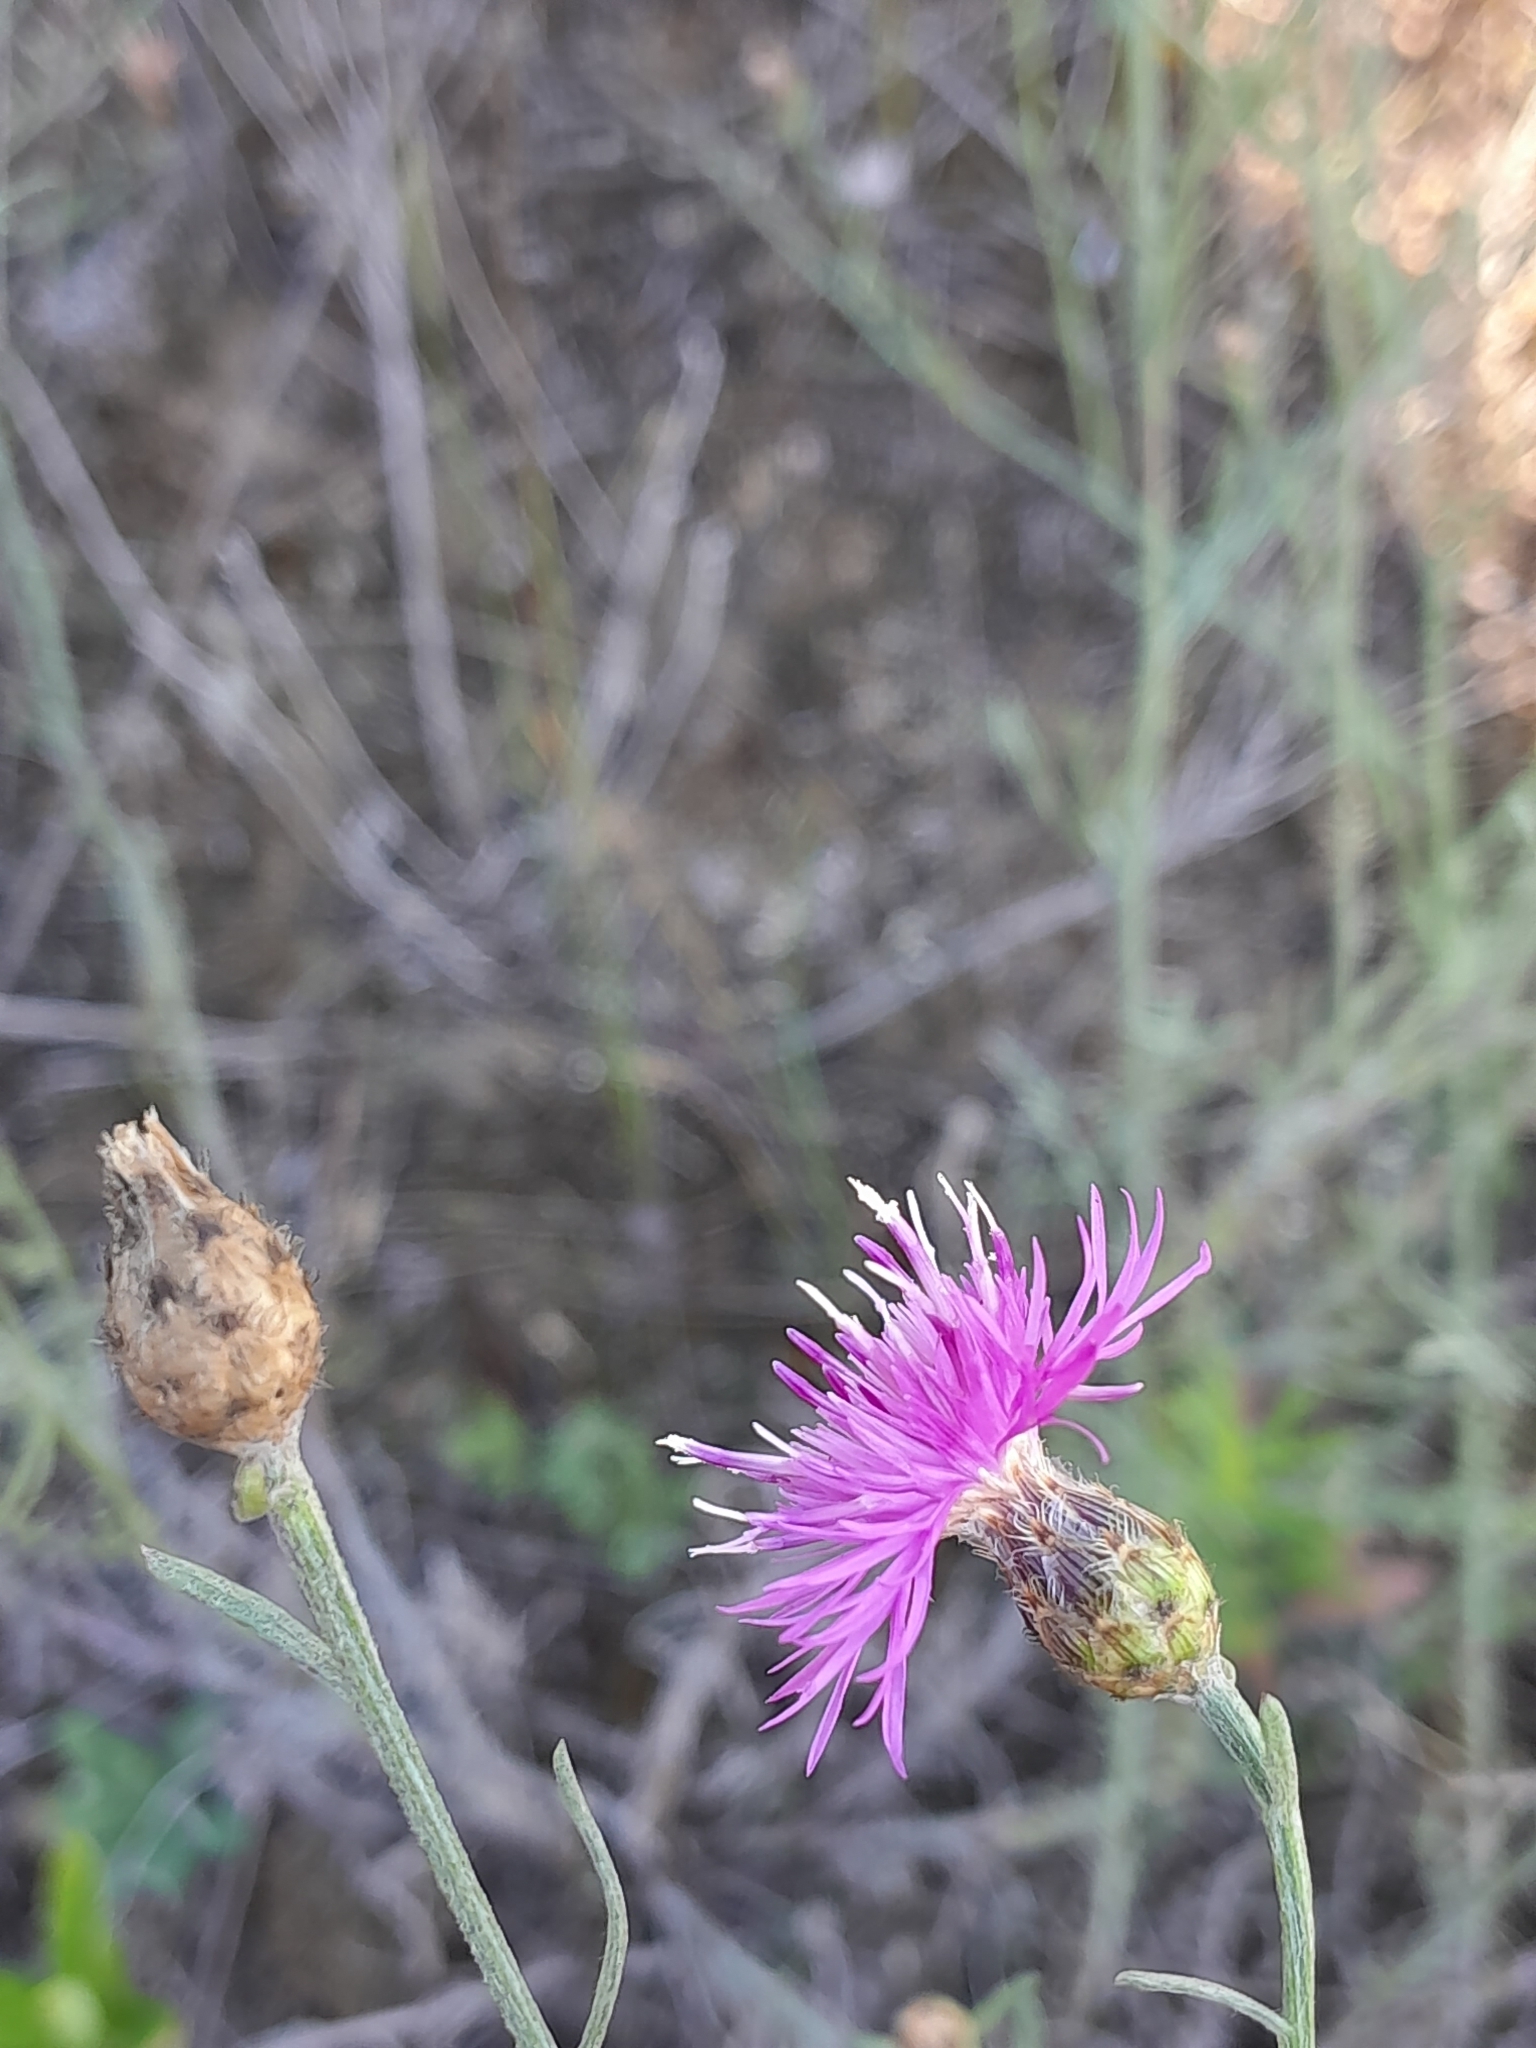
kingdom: Plantae
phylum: Tracheophyta
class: Magnoliopsida
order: Asterales
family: Asteraceae
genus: Centaurea
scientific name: Centaurea stoebe
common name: Spotted knapweed
